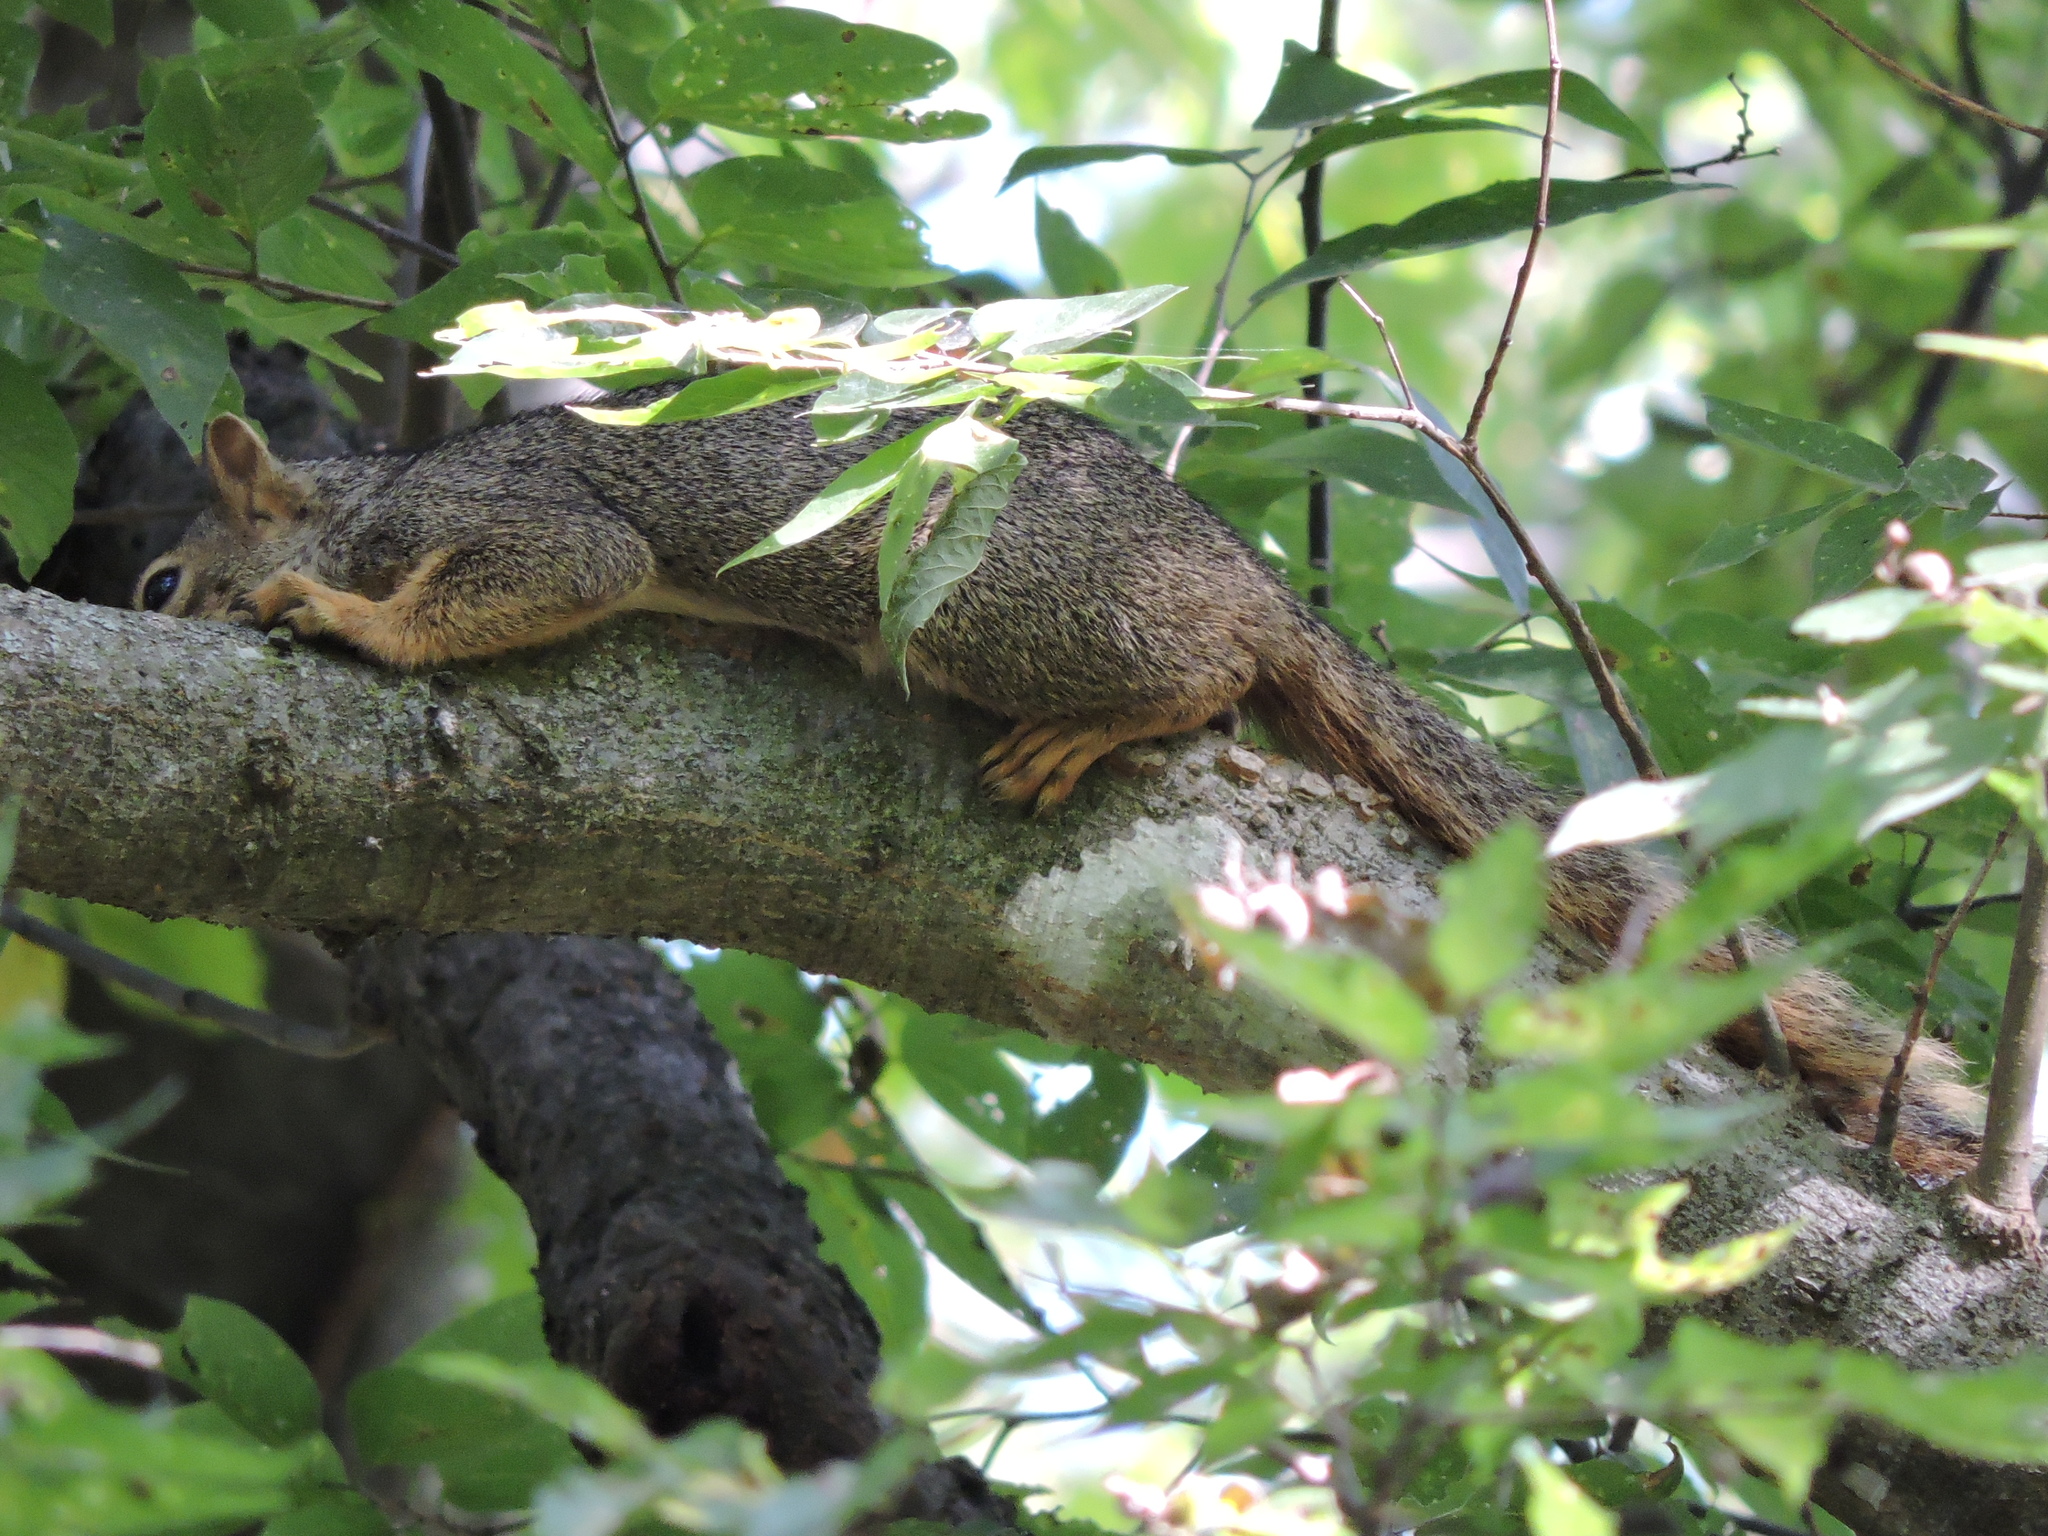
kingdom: Animalia
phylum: Chordata
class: Mammalia
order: Rodentia
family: Sciuridae
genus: Sciurus
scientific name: Sciurus niger
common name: Fox squirrel
